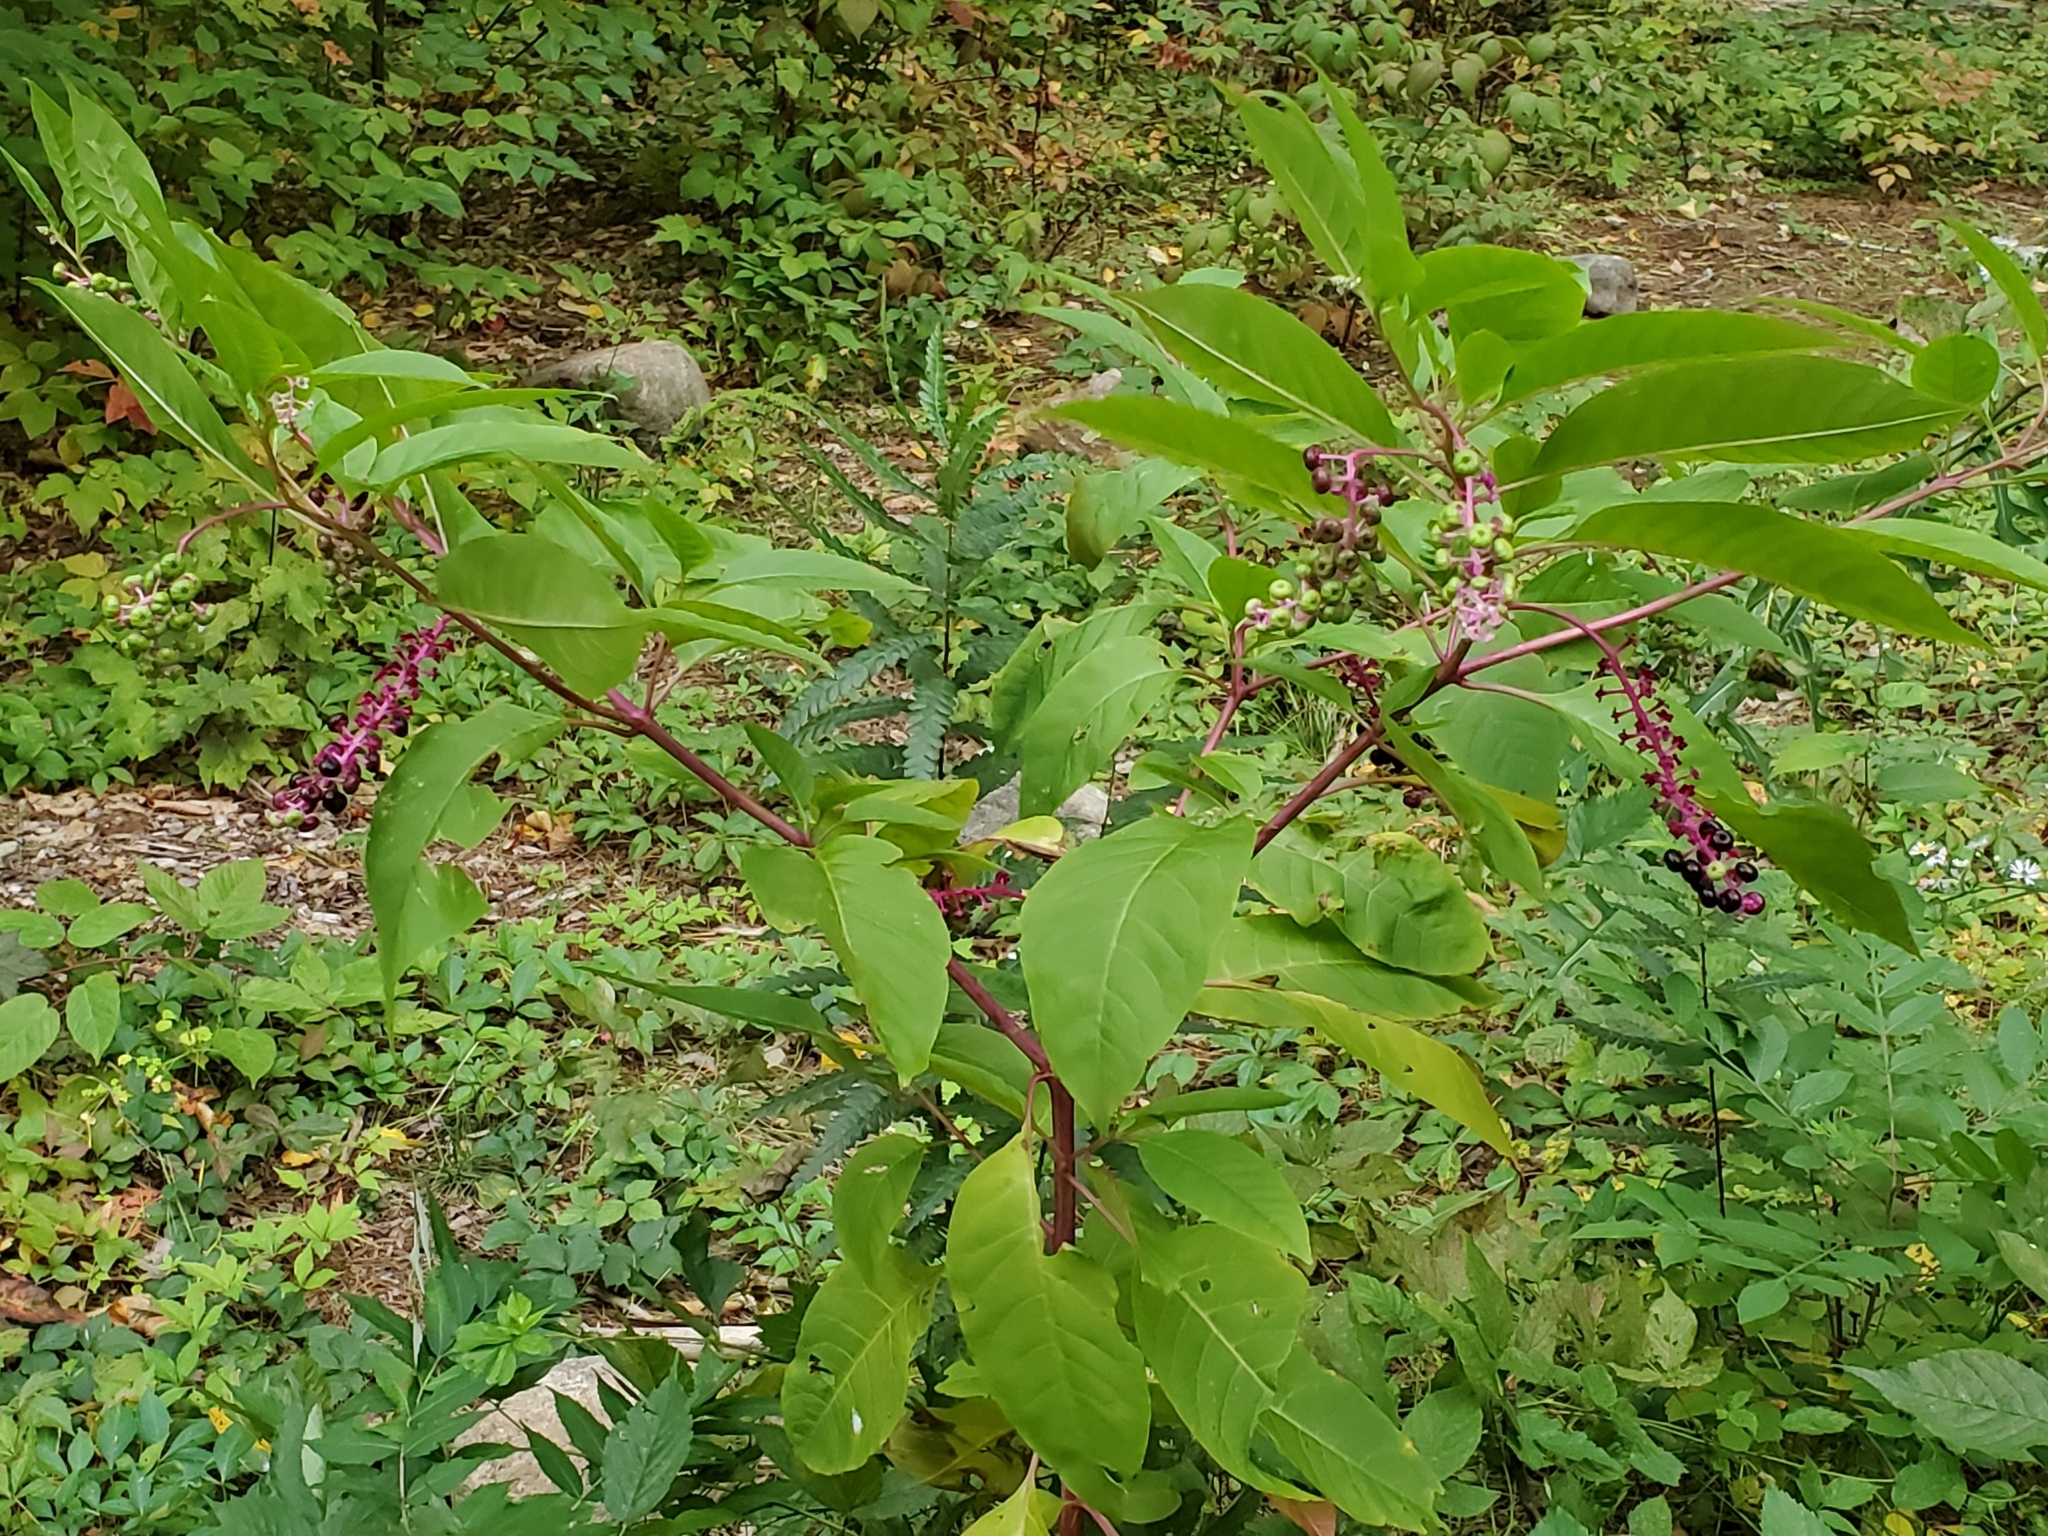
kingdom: Plantae
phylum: Tracheophyta
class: Magnoliopsida
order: Caryophyllales
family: Phytolaccaceae
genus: Phytolacca
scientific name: Phytolacca americana
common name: American pokeweed
